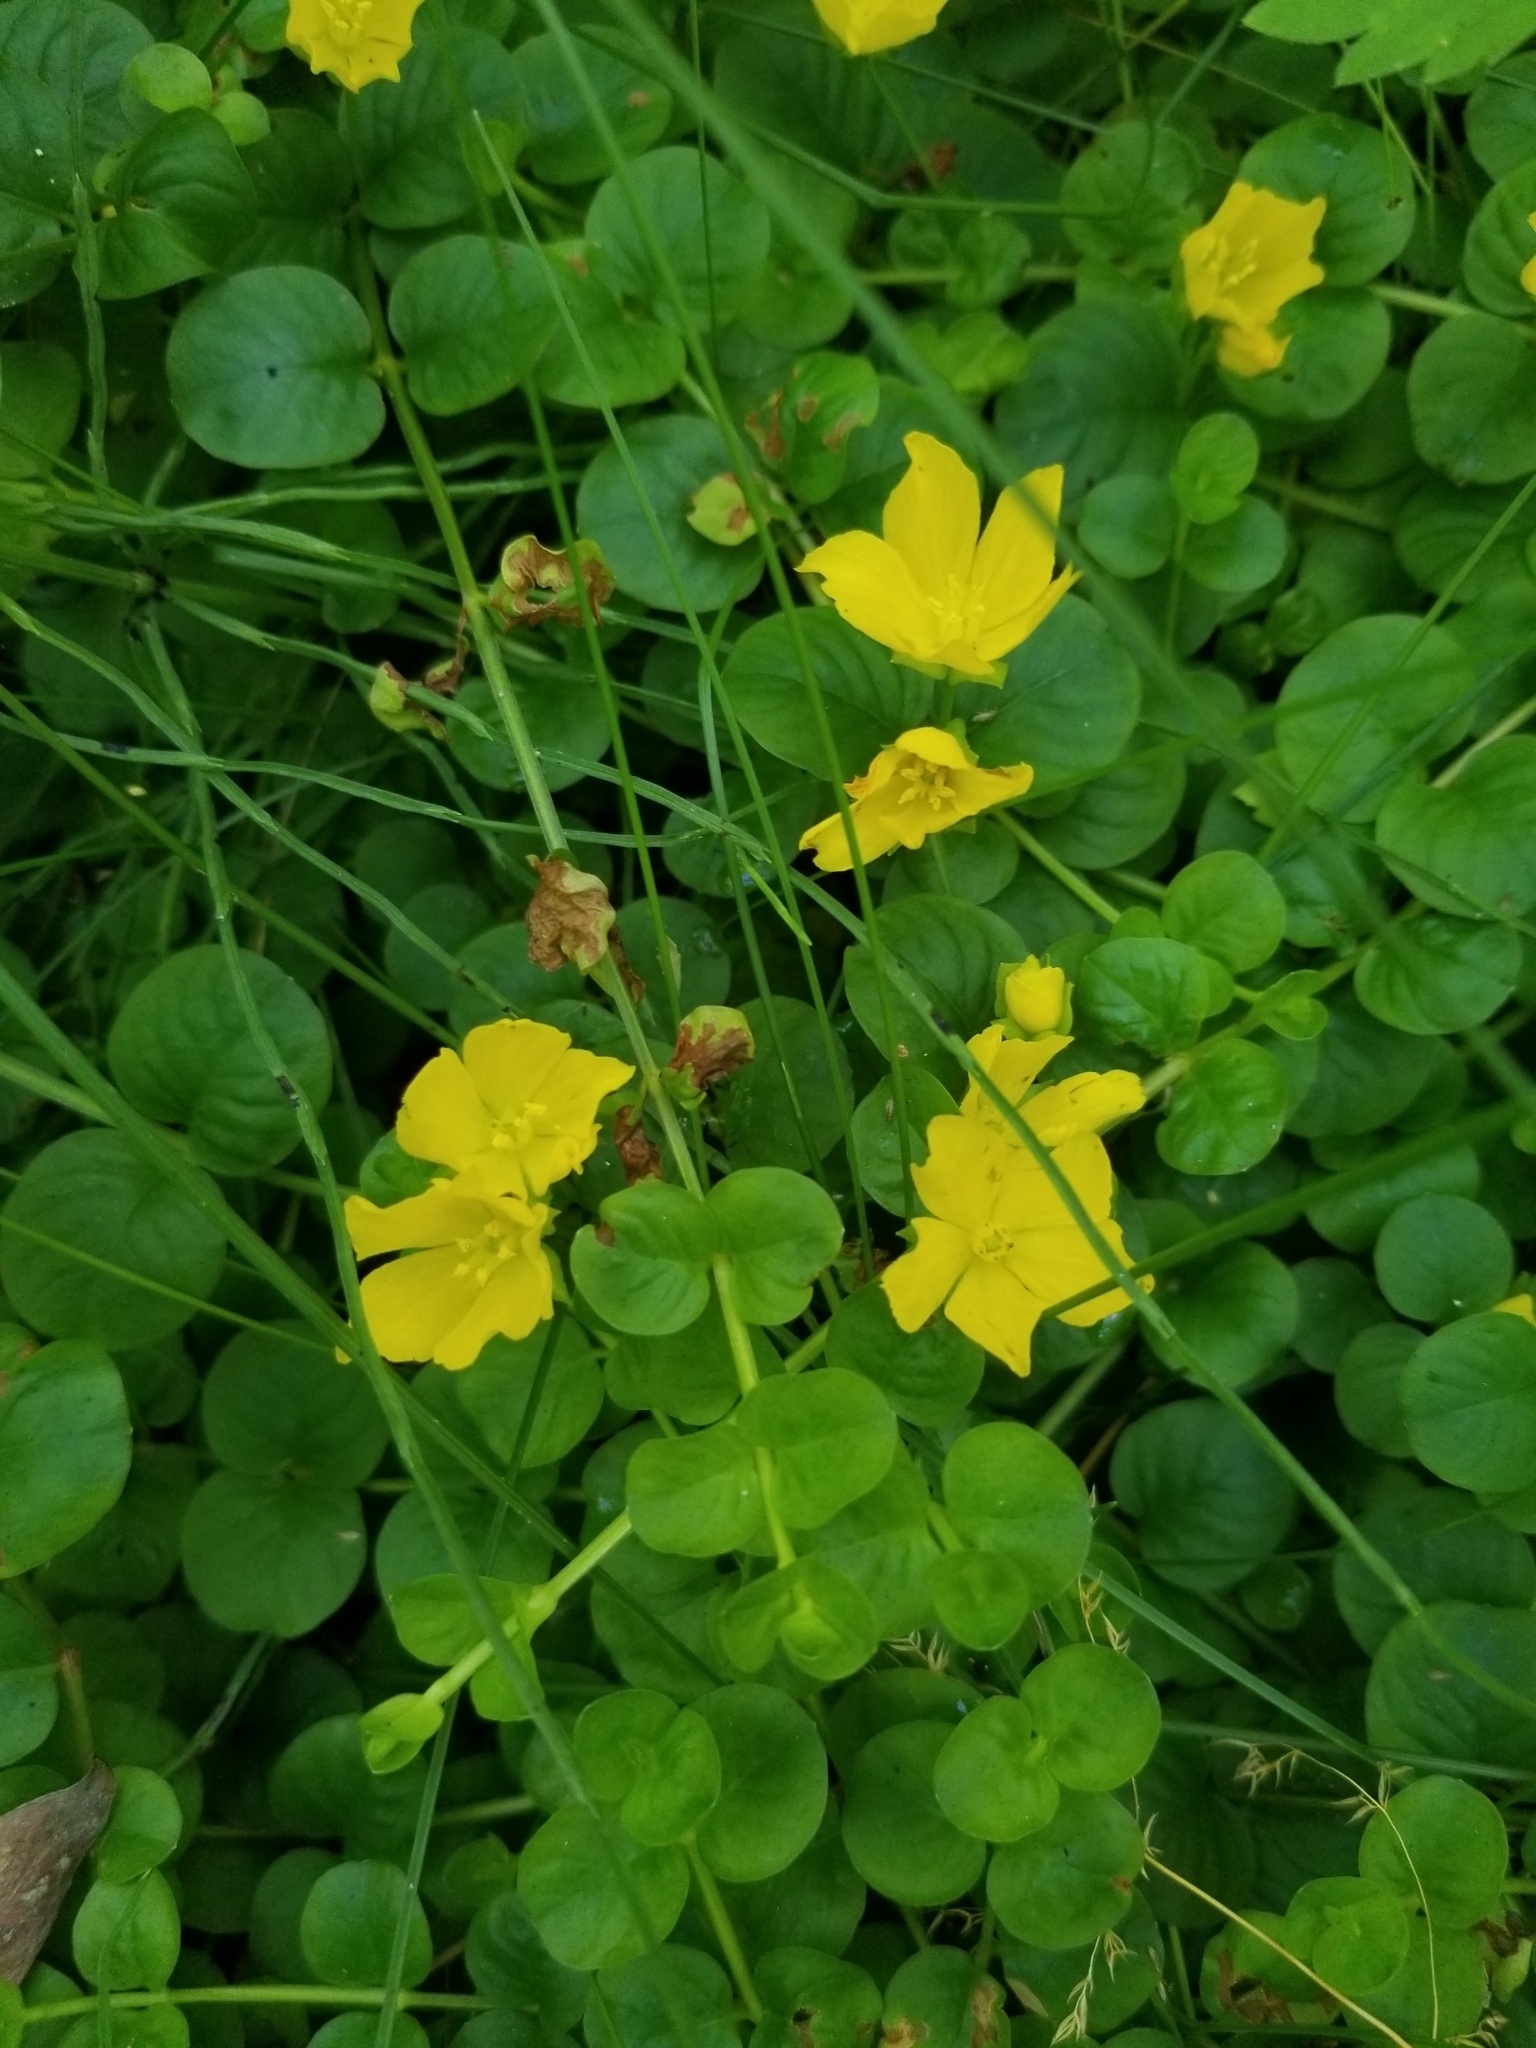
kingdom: Plantae
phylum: Tracheophyta
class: Magnoliopsida
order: Ericales
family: Primulaceae
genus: Lysimachia
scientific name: Lysimachia nummularia
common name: Moneywort
